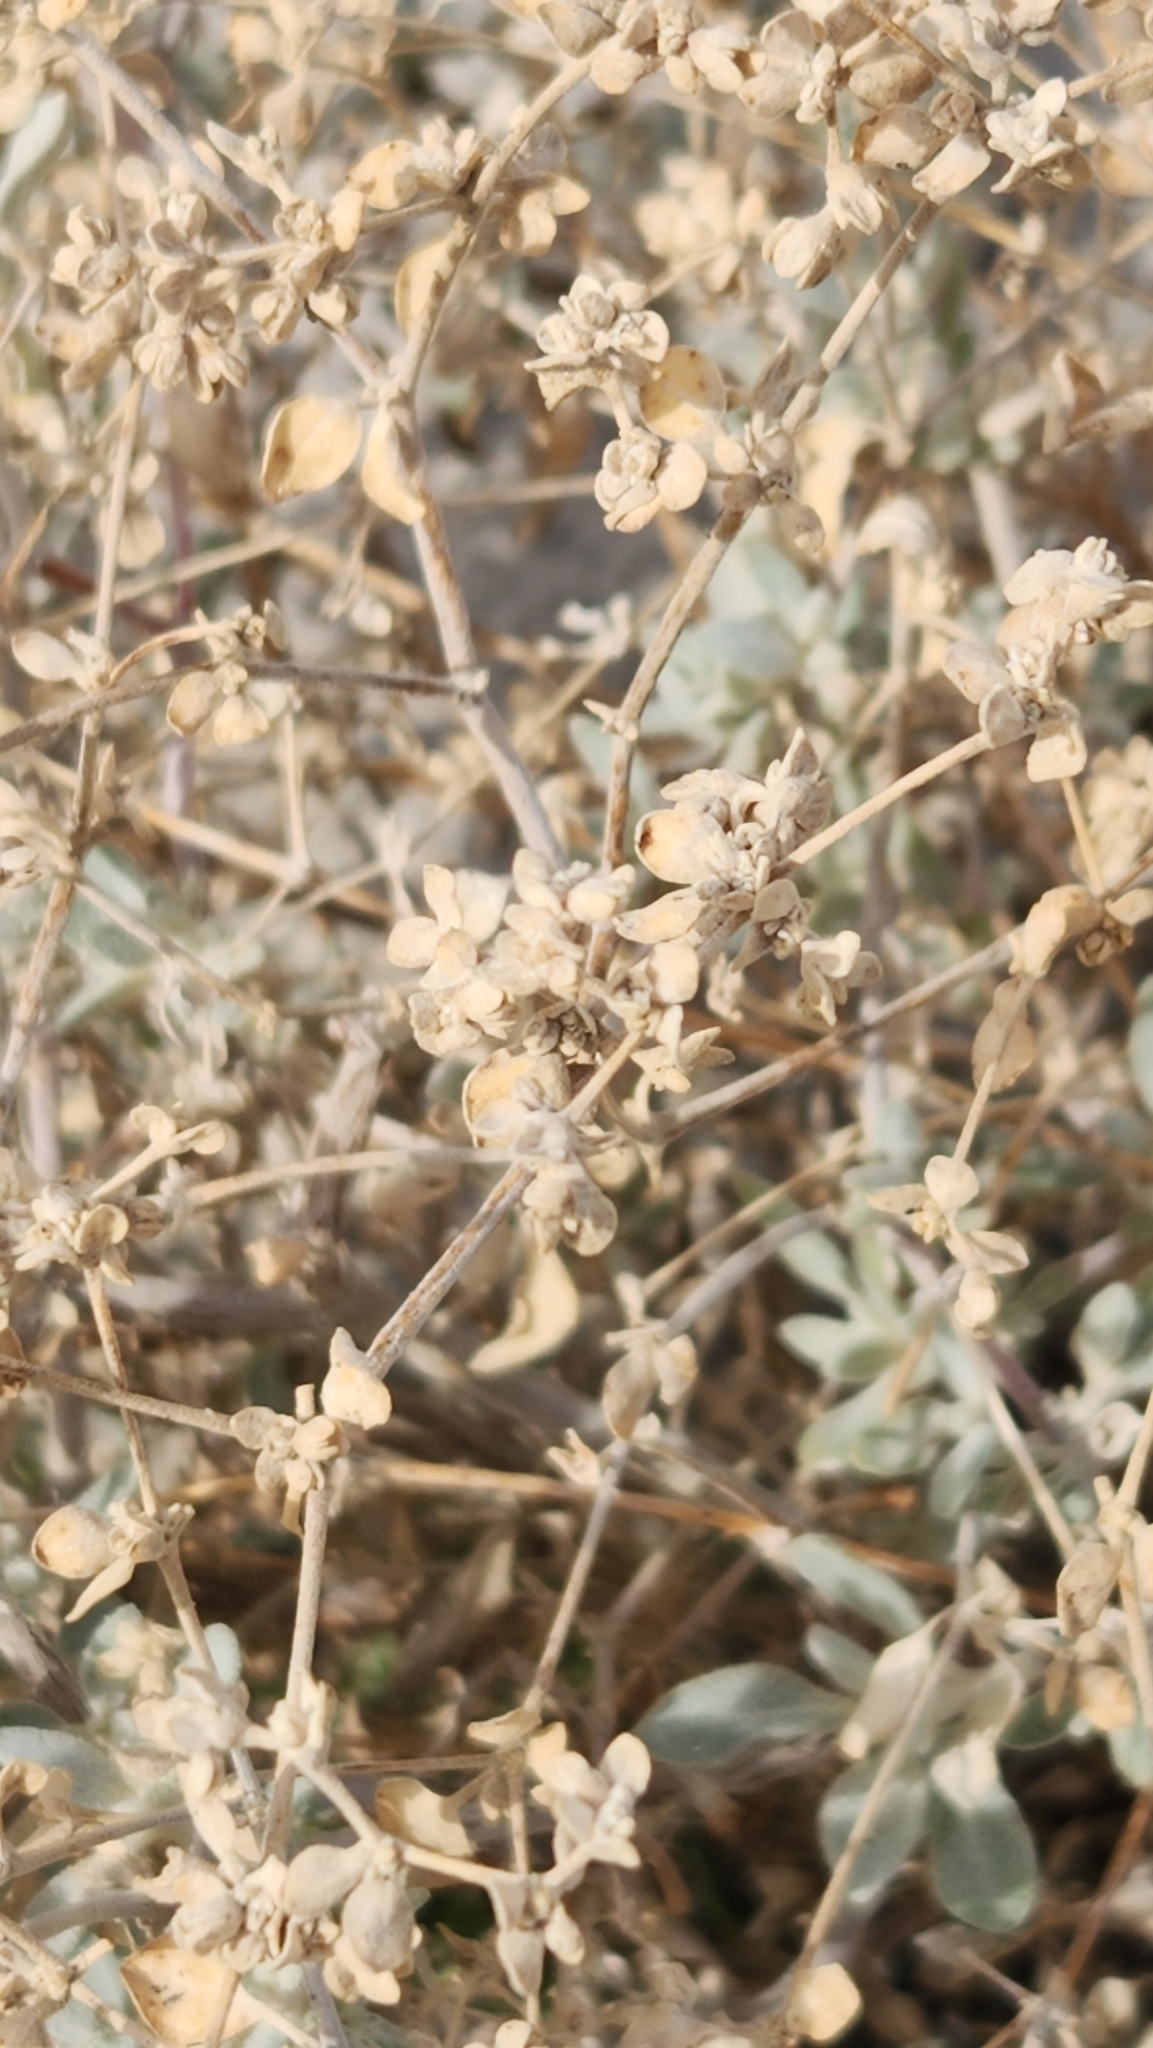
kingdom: Plantae
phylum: Tracheophyta
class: Magnoliopsida
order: Caryophyllales
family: Amaranthaceae
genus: Tidestromia
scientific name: Tidestromia suffruticosa
